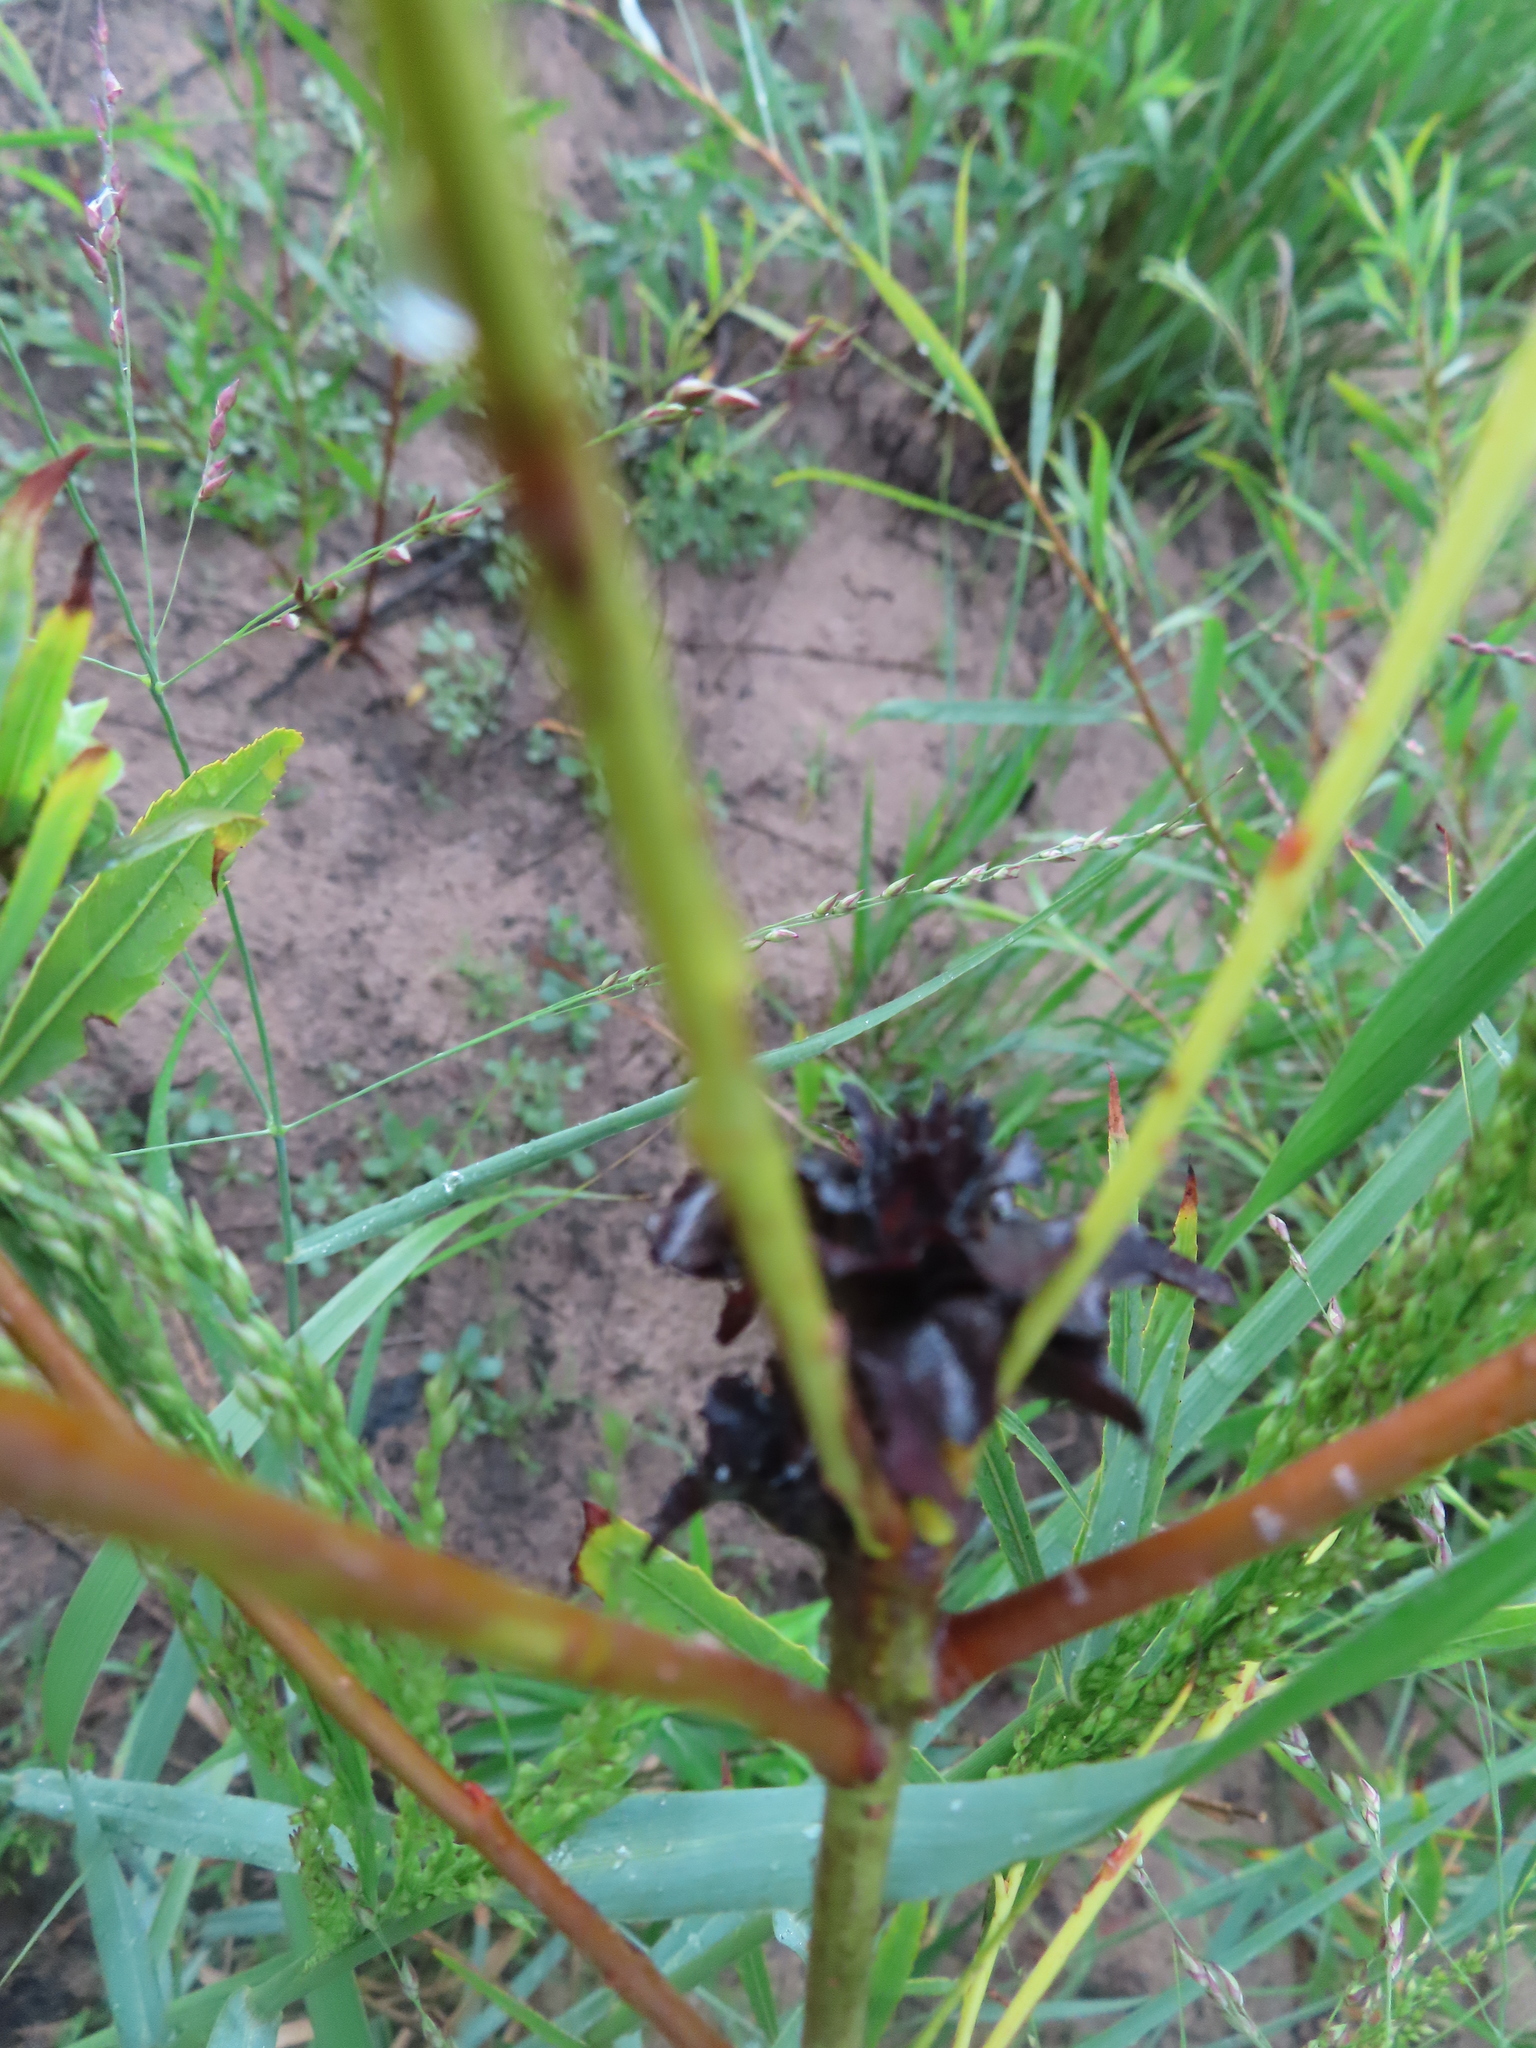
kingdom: Animalia
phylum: Arthropoda
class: Insecta
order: Diptera
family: Cecidomyiidae
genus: Rabdophaga
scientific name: Rabdophaga salicisbrassicoides
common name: Willow cabbagegall midge
